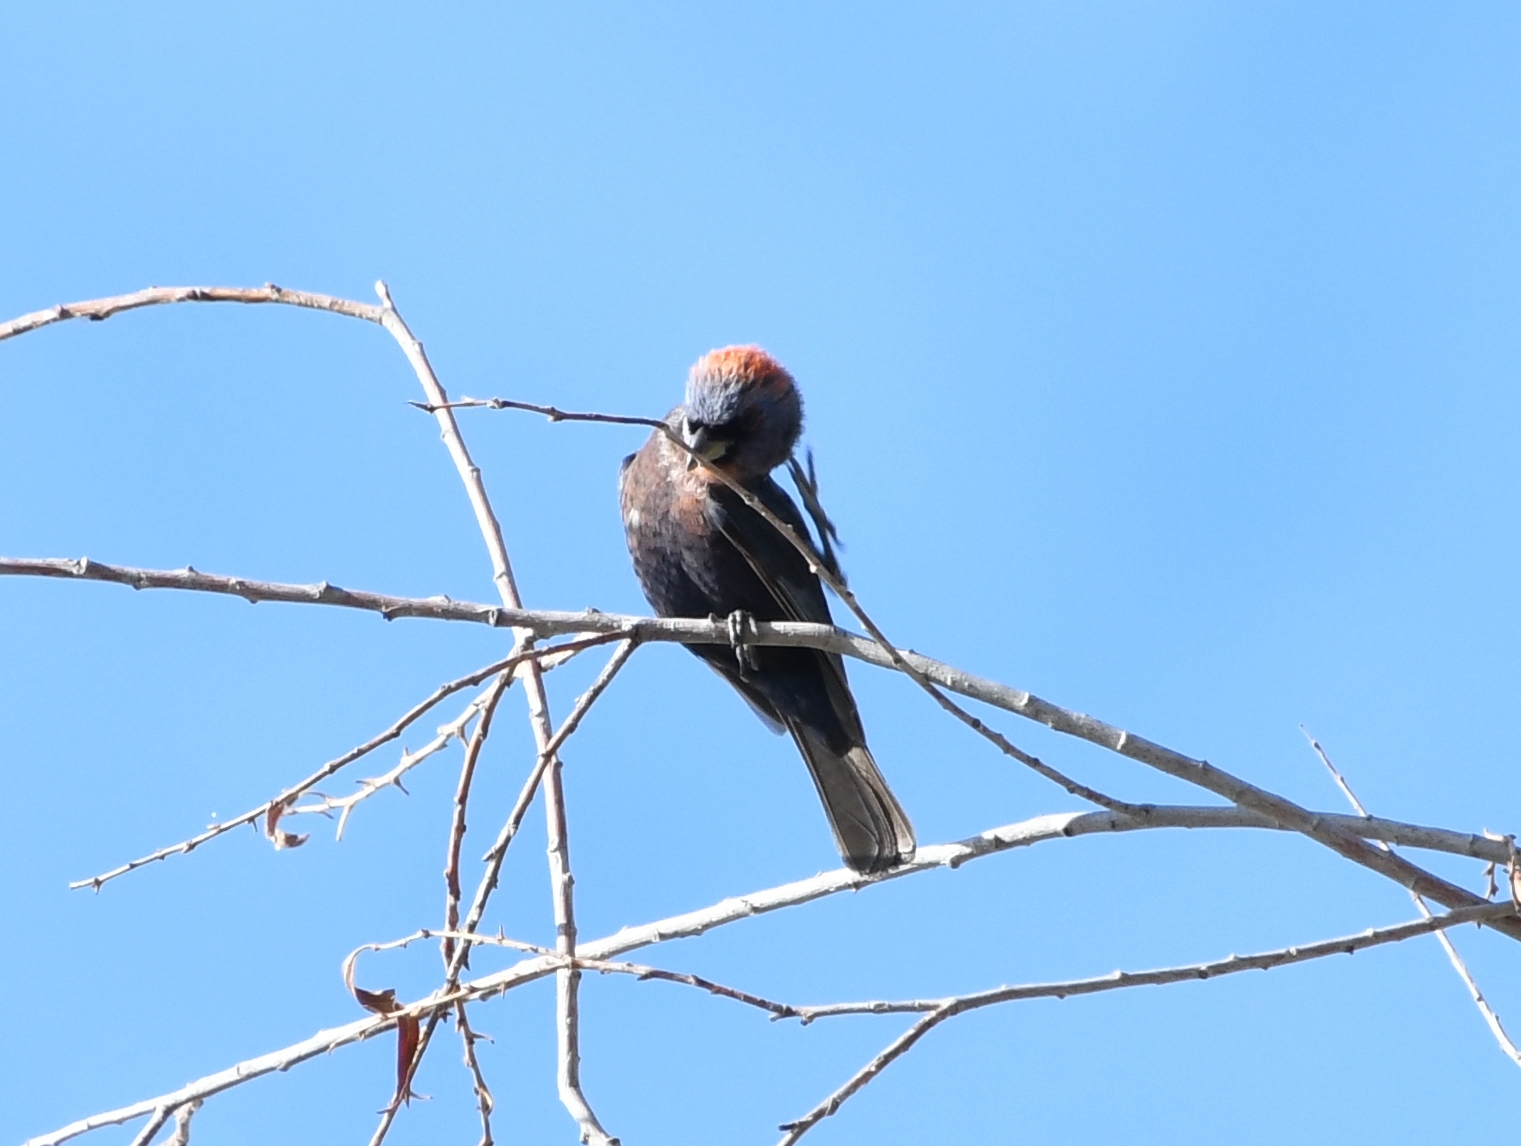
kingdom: Animalia
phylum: Chordata
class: Aves
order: Passeriformes
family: Cardinalidae
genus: Passerina
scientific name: Passerina versicolor
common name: Varied bunting
